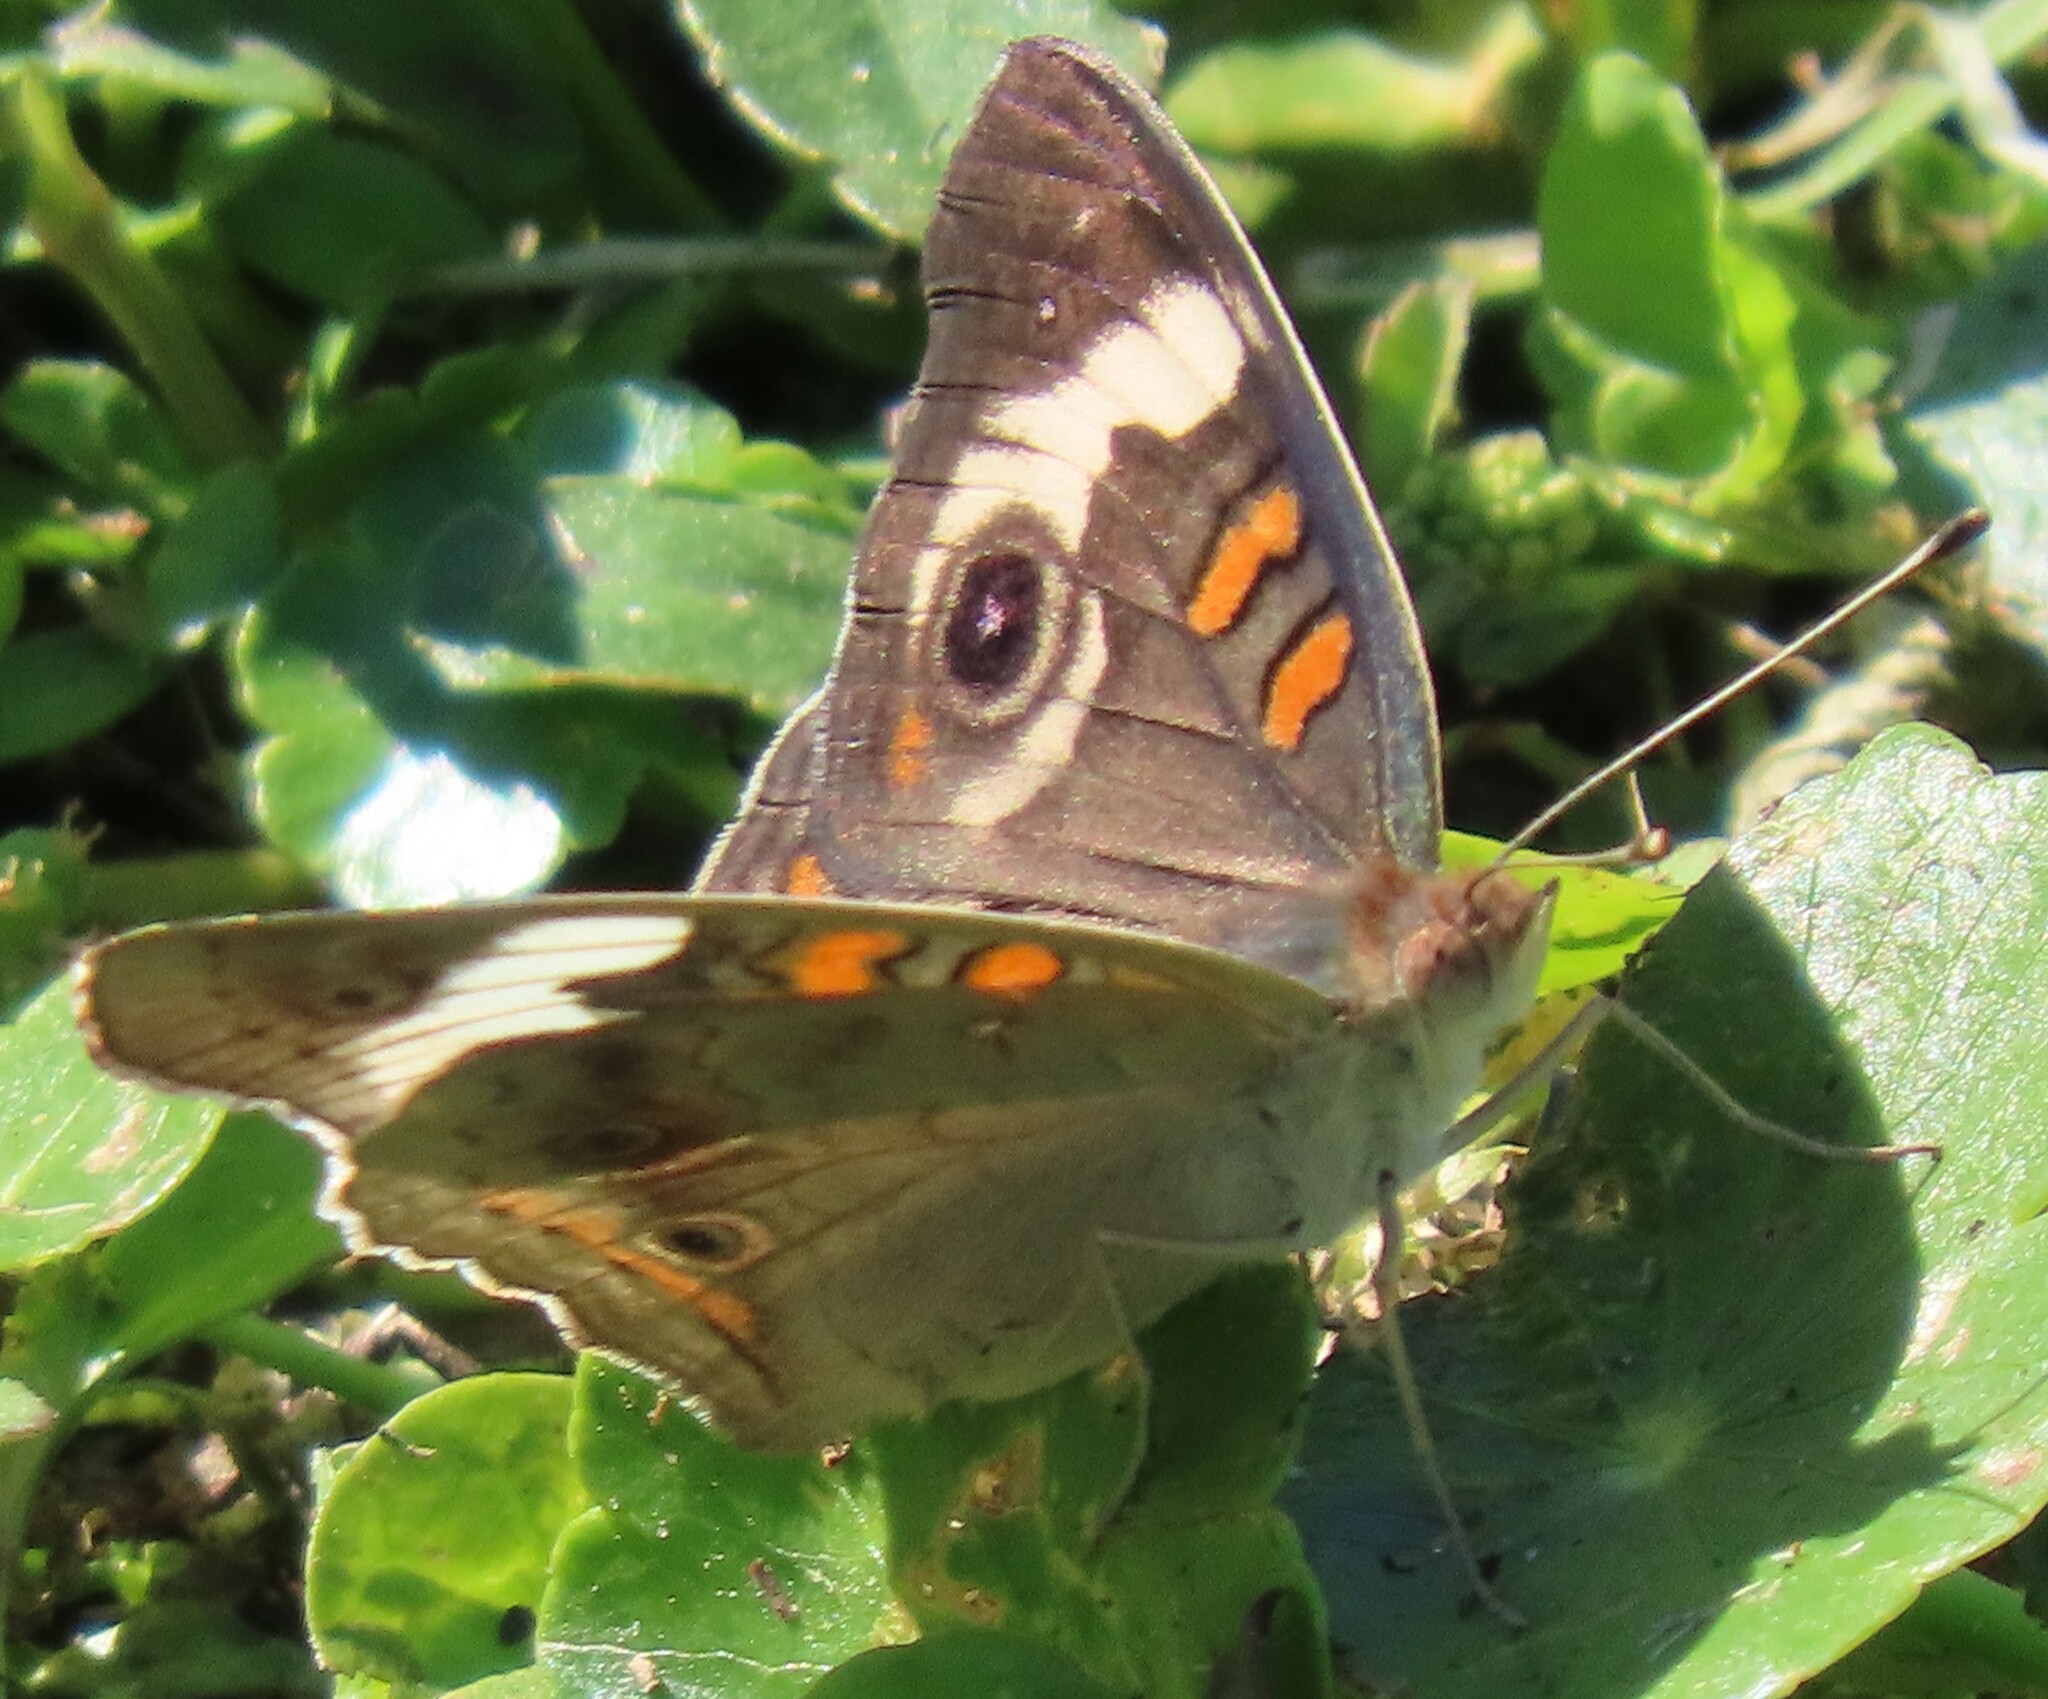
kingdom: Animalia
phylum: Arthropoda
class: Insecta
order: Lepidoptera
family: Nymphalidae
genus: Junonia
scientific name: Junonia coenia
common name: Common buckeye
